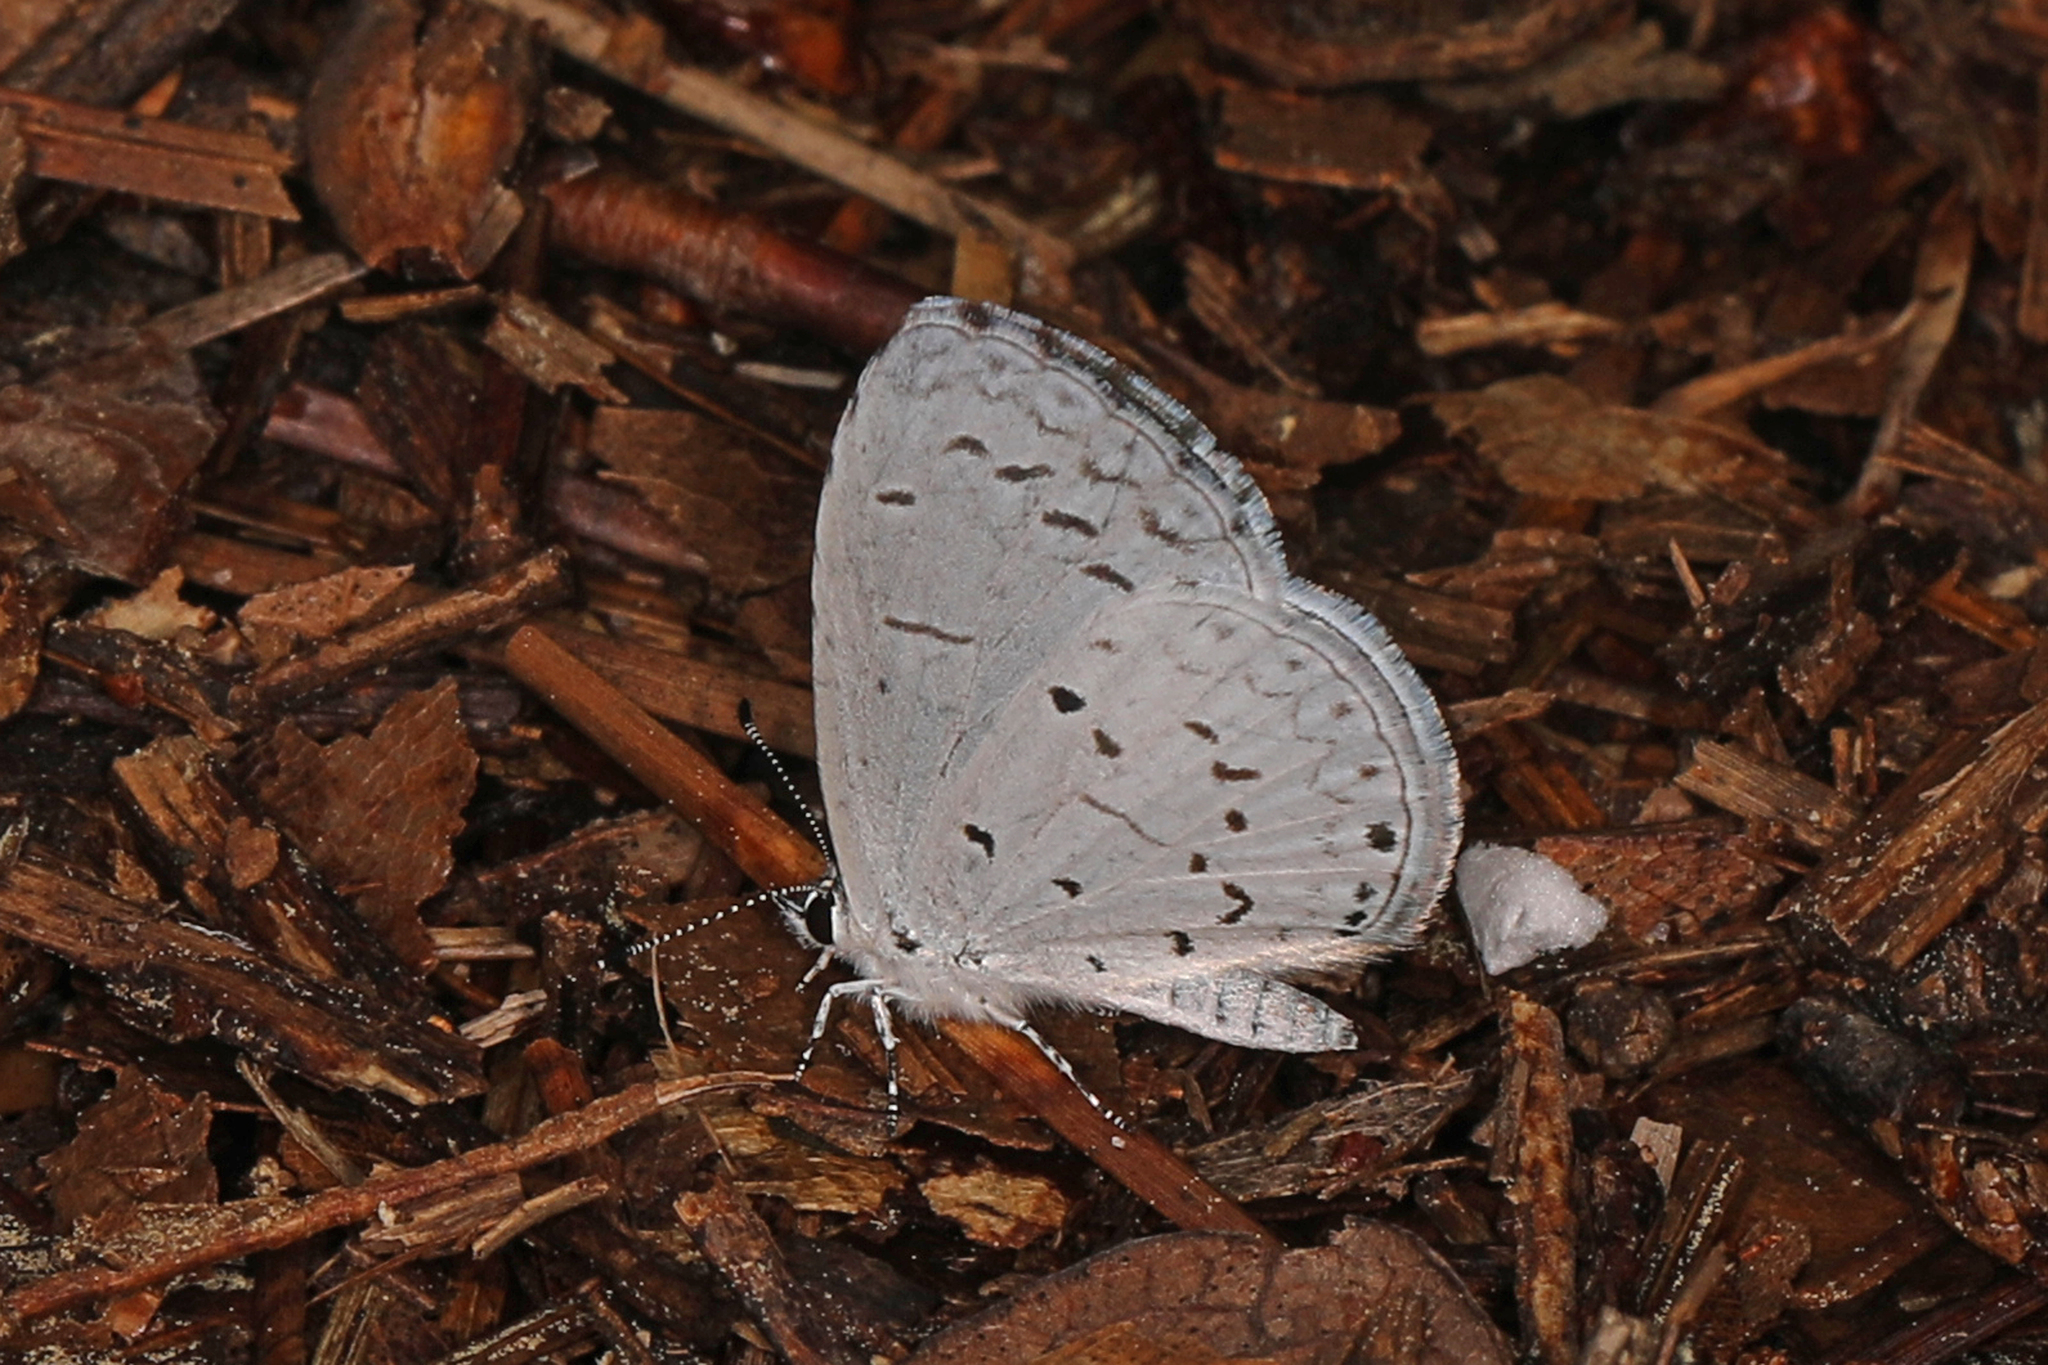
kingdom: Animalia
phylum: Arthropoda
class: Insecta
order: Lepidoptera
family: Lycaenidae
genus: Cyaniris
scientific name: Cyaniris neglecta
